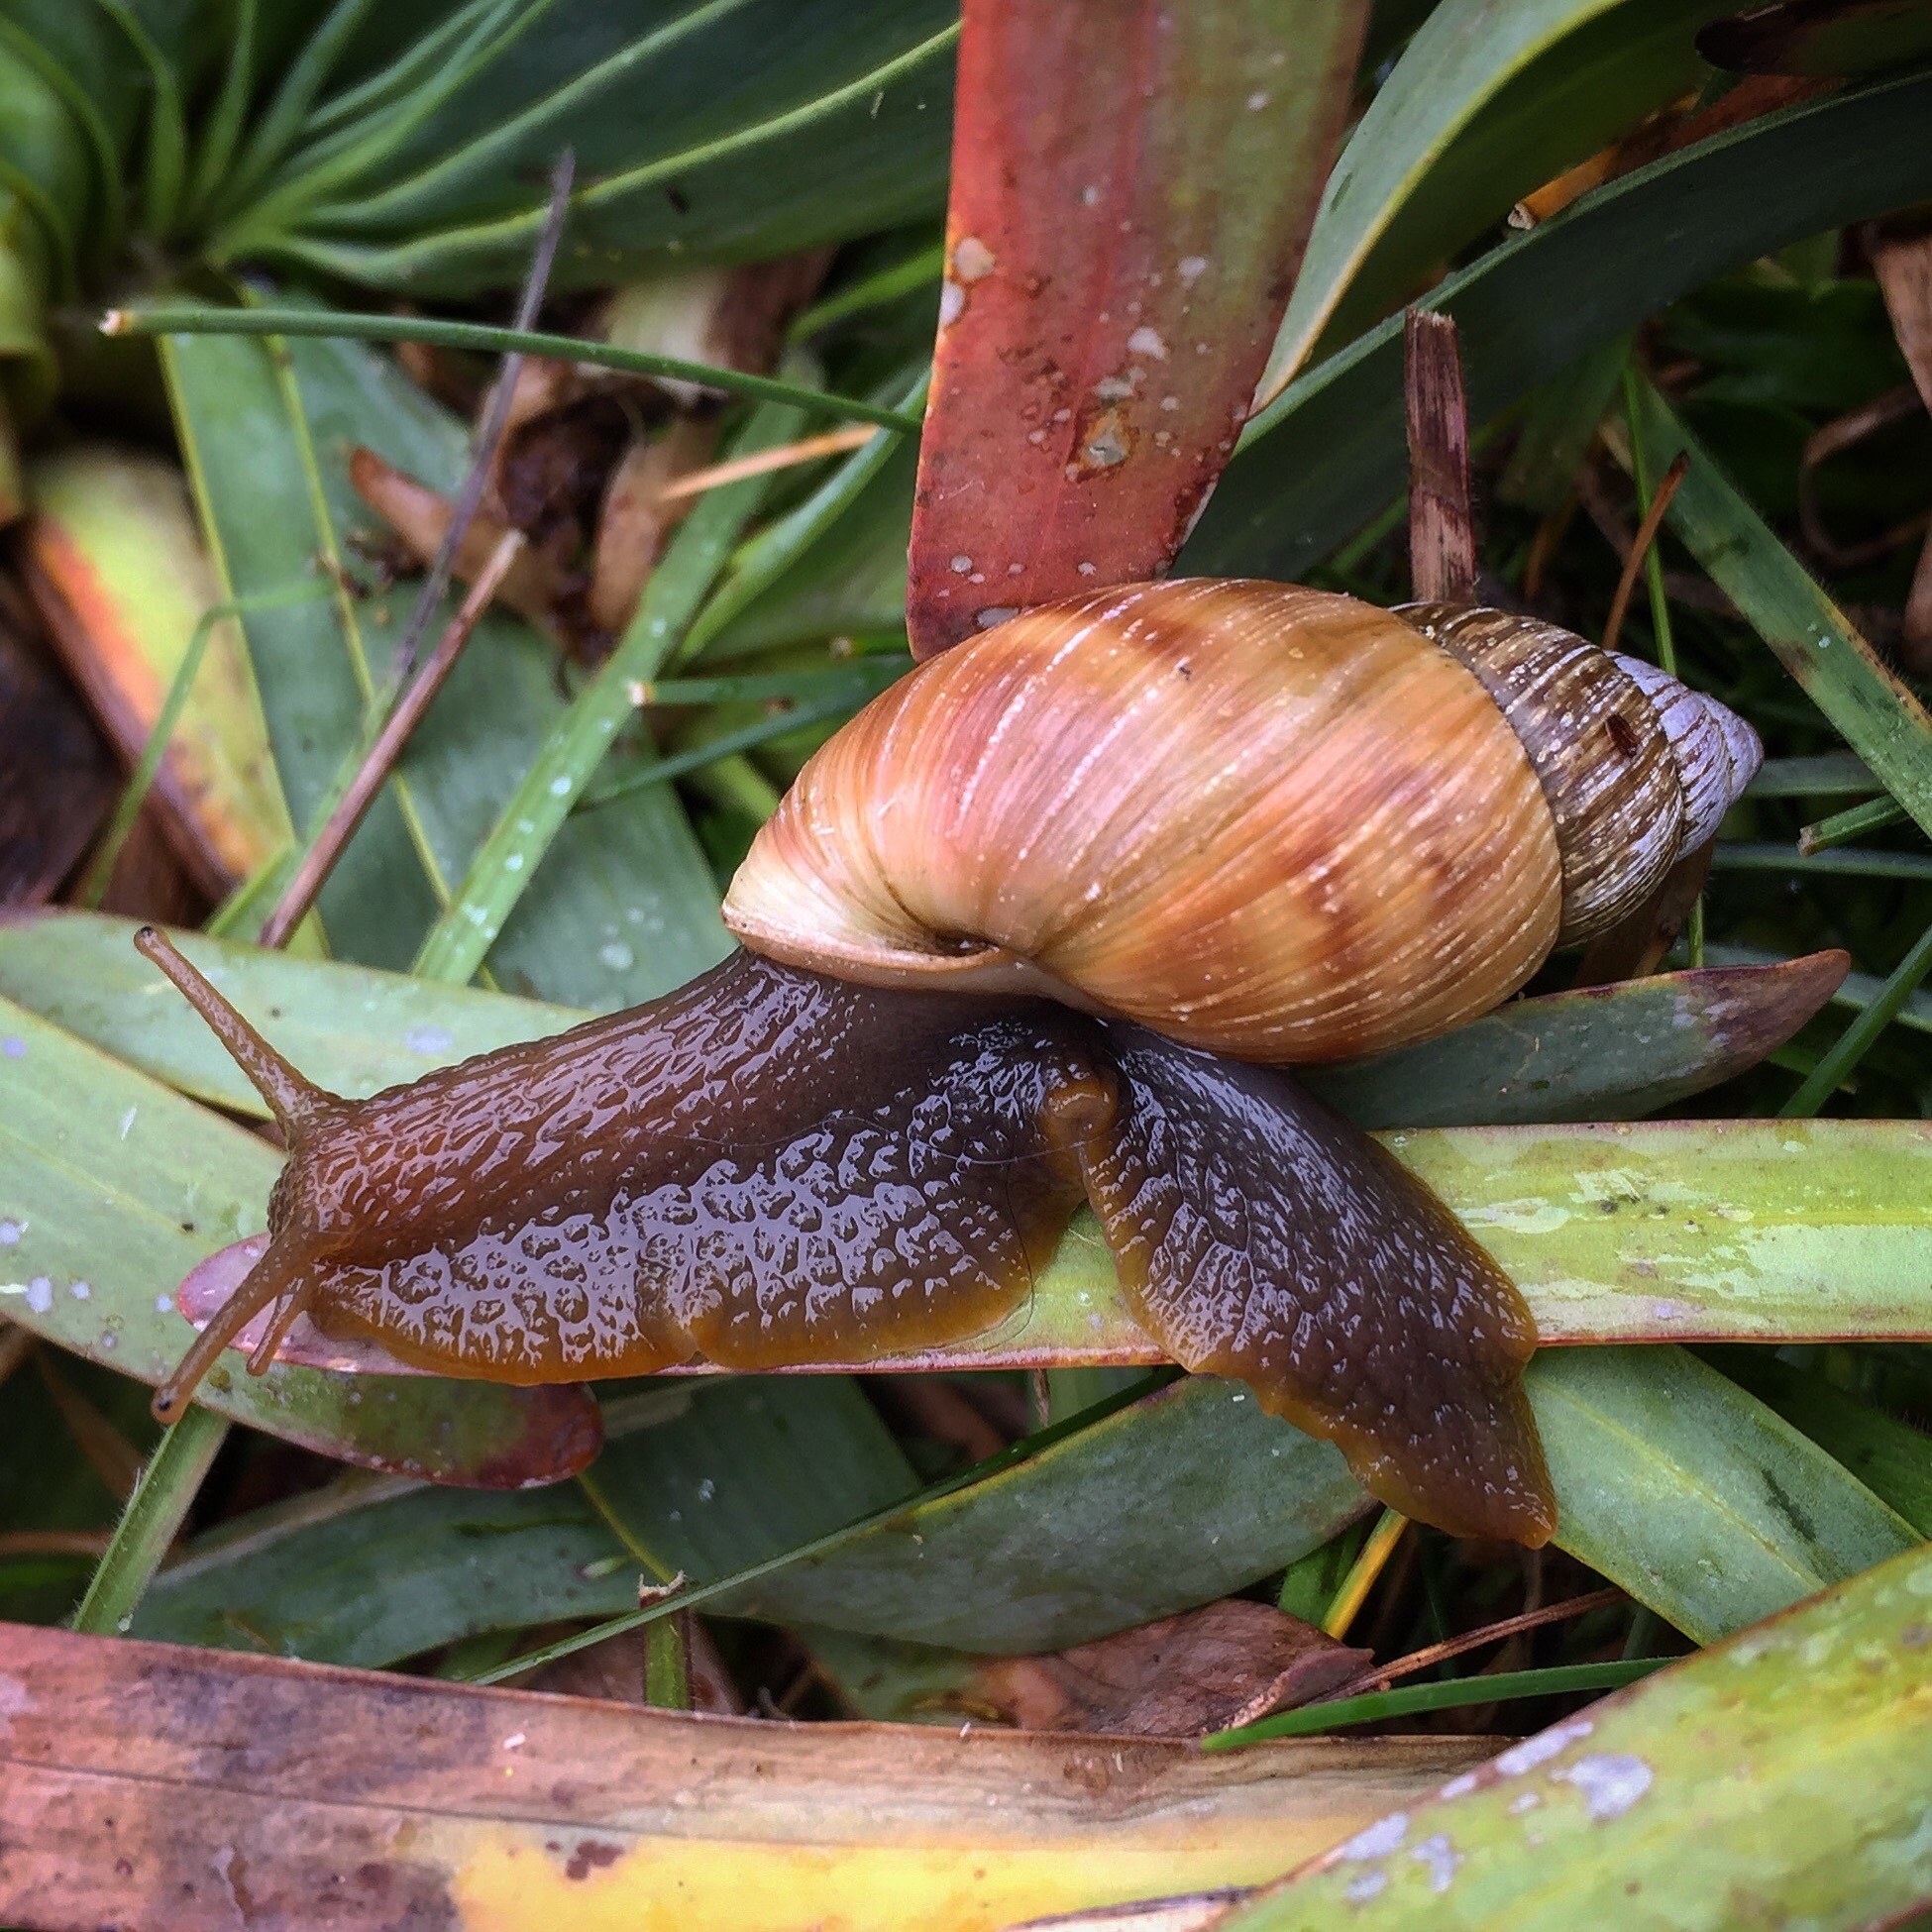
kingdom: Animalia
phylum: Mollusca
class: Gastropoda
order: Stylommatophora
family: Bulimulidae
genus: Bocourtia
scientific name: Bocourtia aequatoria
